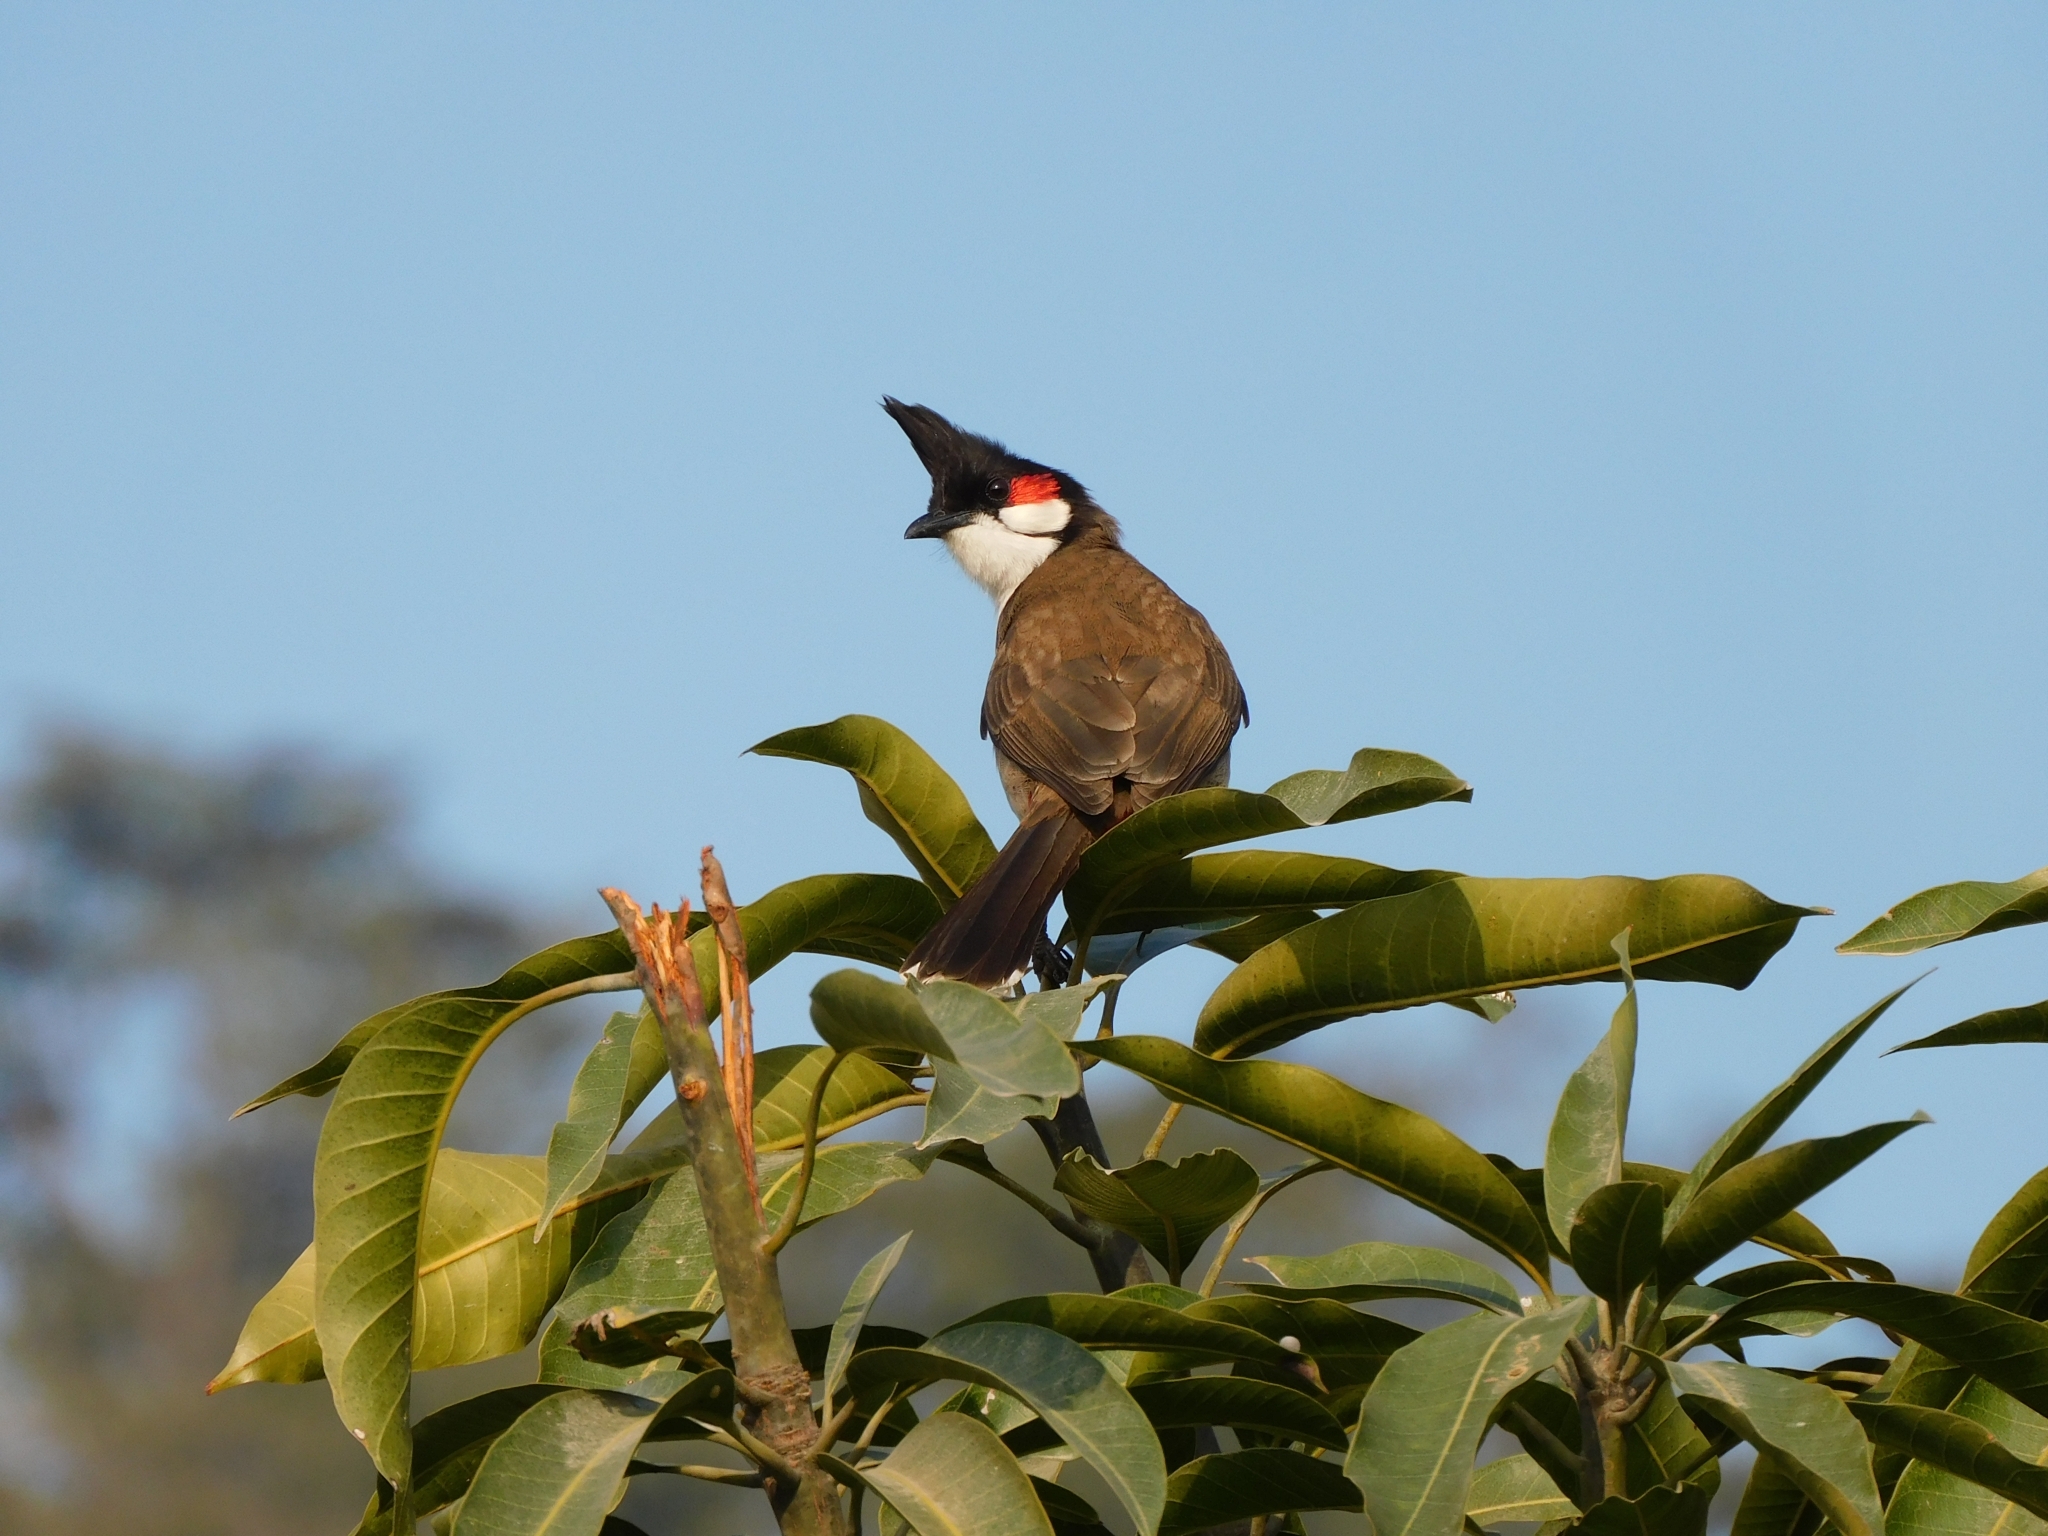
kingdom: Animalia
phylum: Chordata
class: Aves
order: Passeriformes
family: Pycnonotidae
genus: Pycnonotus
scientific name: Pycnonotus jocosus
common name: Red-whiskered bulbul
